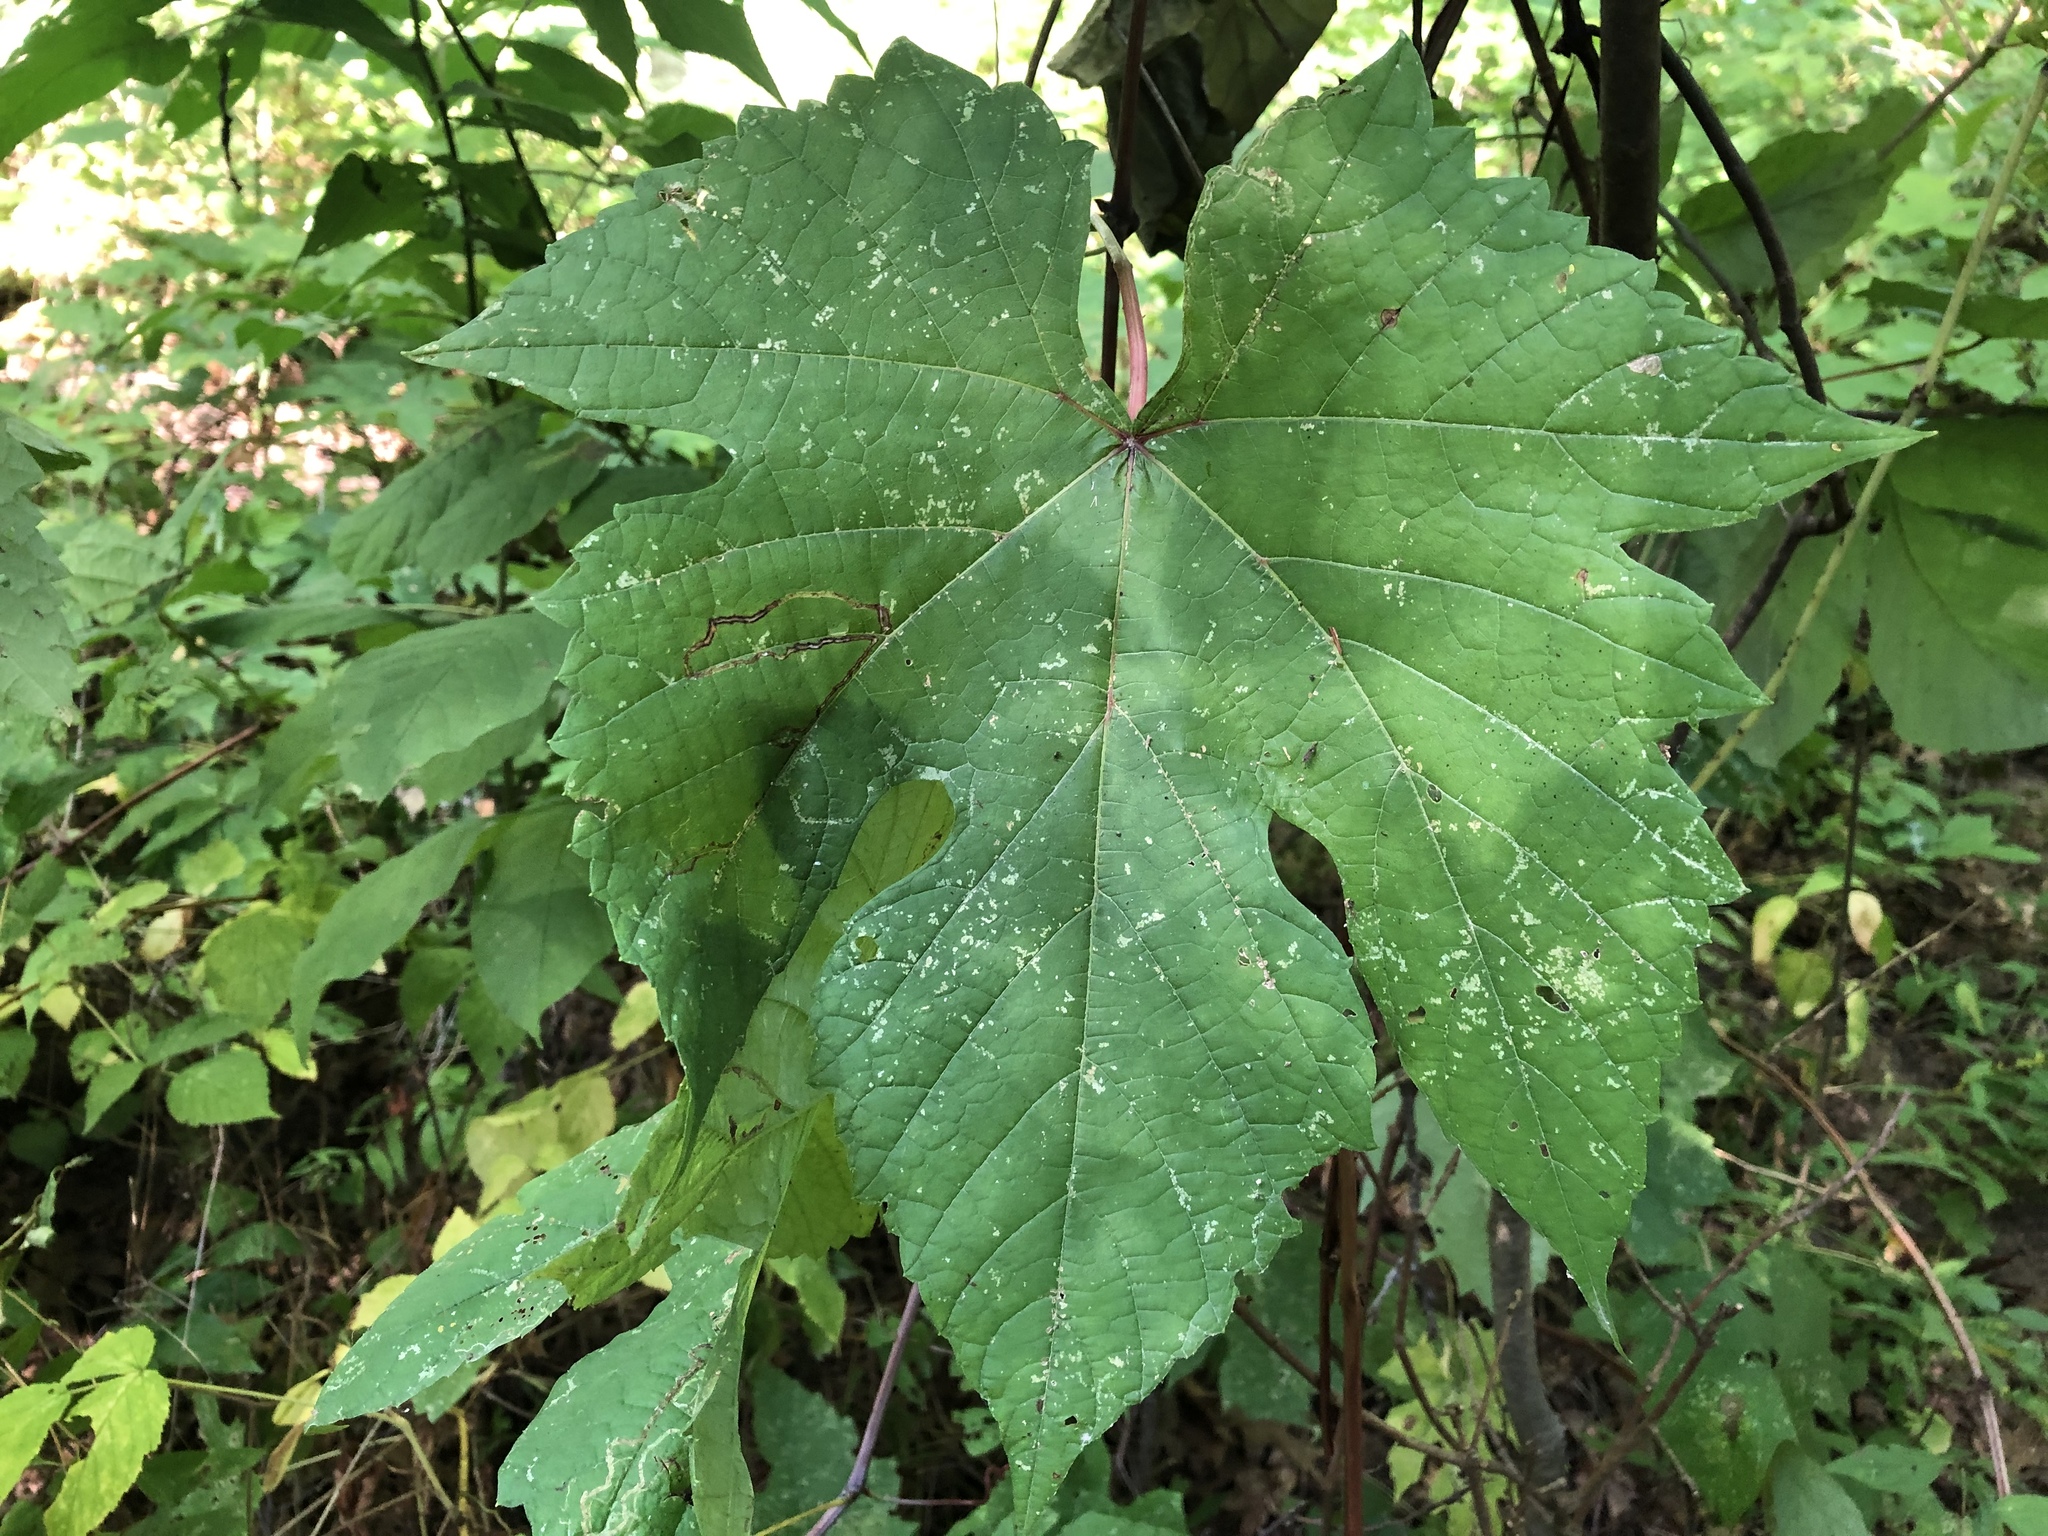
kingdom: Plantae
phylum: Tracheophyta
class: Magnoliopsida
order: Vitales
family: Vitaceae
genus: Vitis
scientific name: Vitis aestivalis
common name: Pigeon grape
